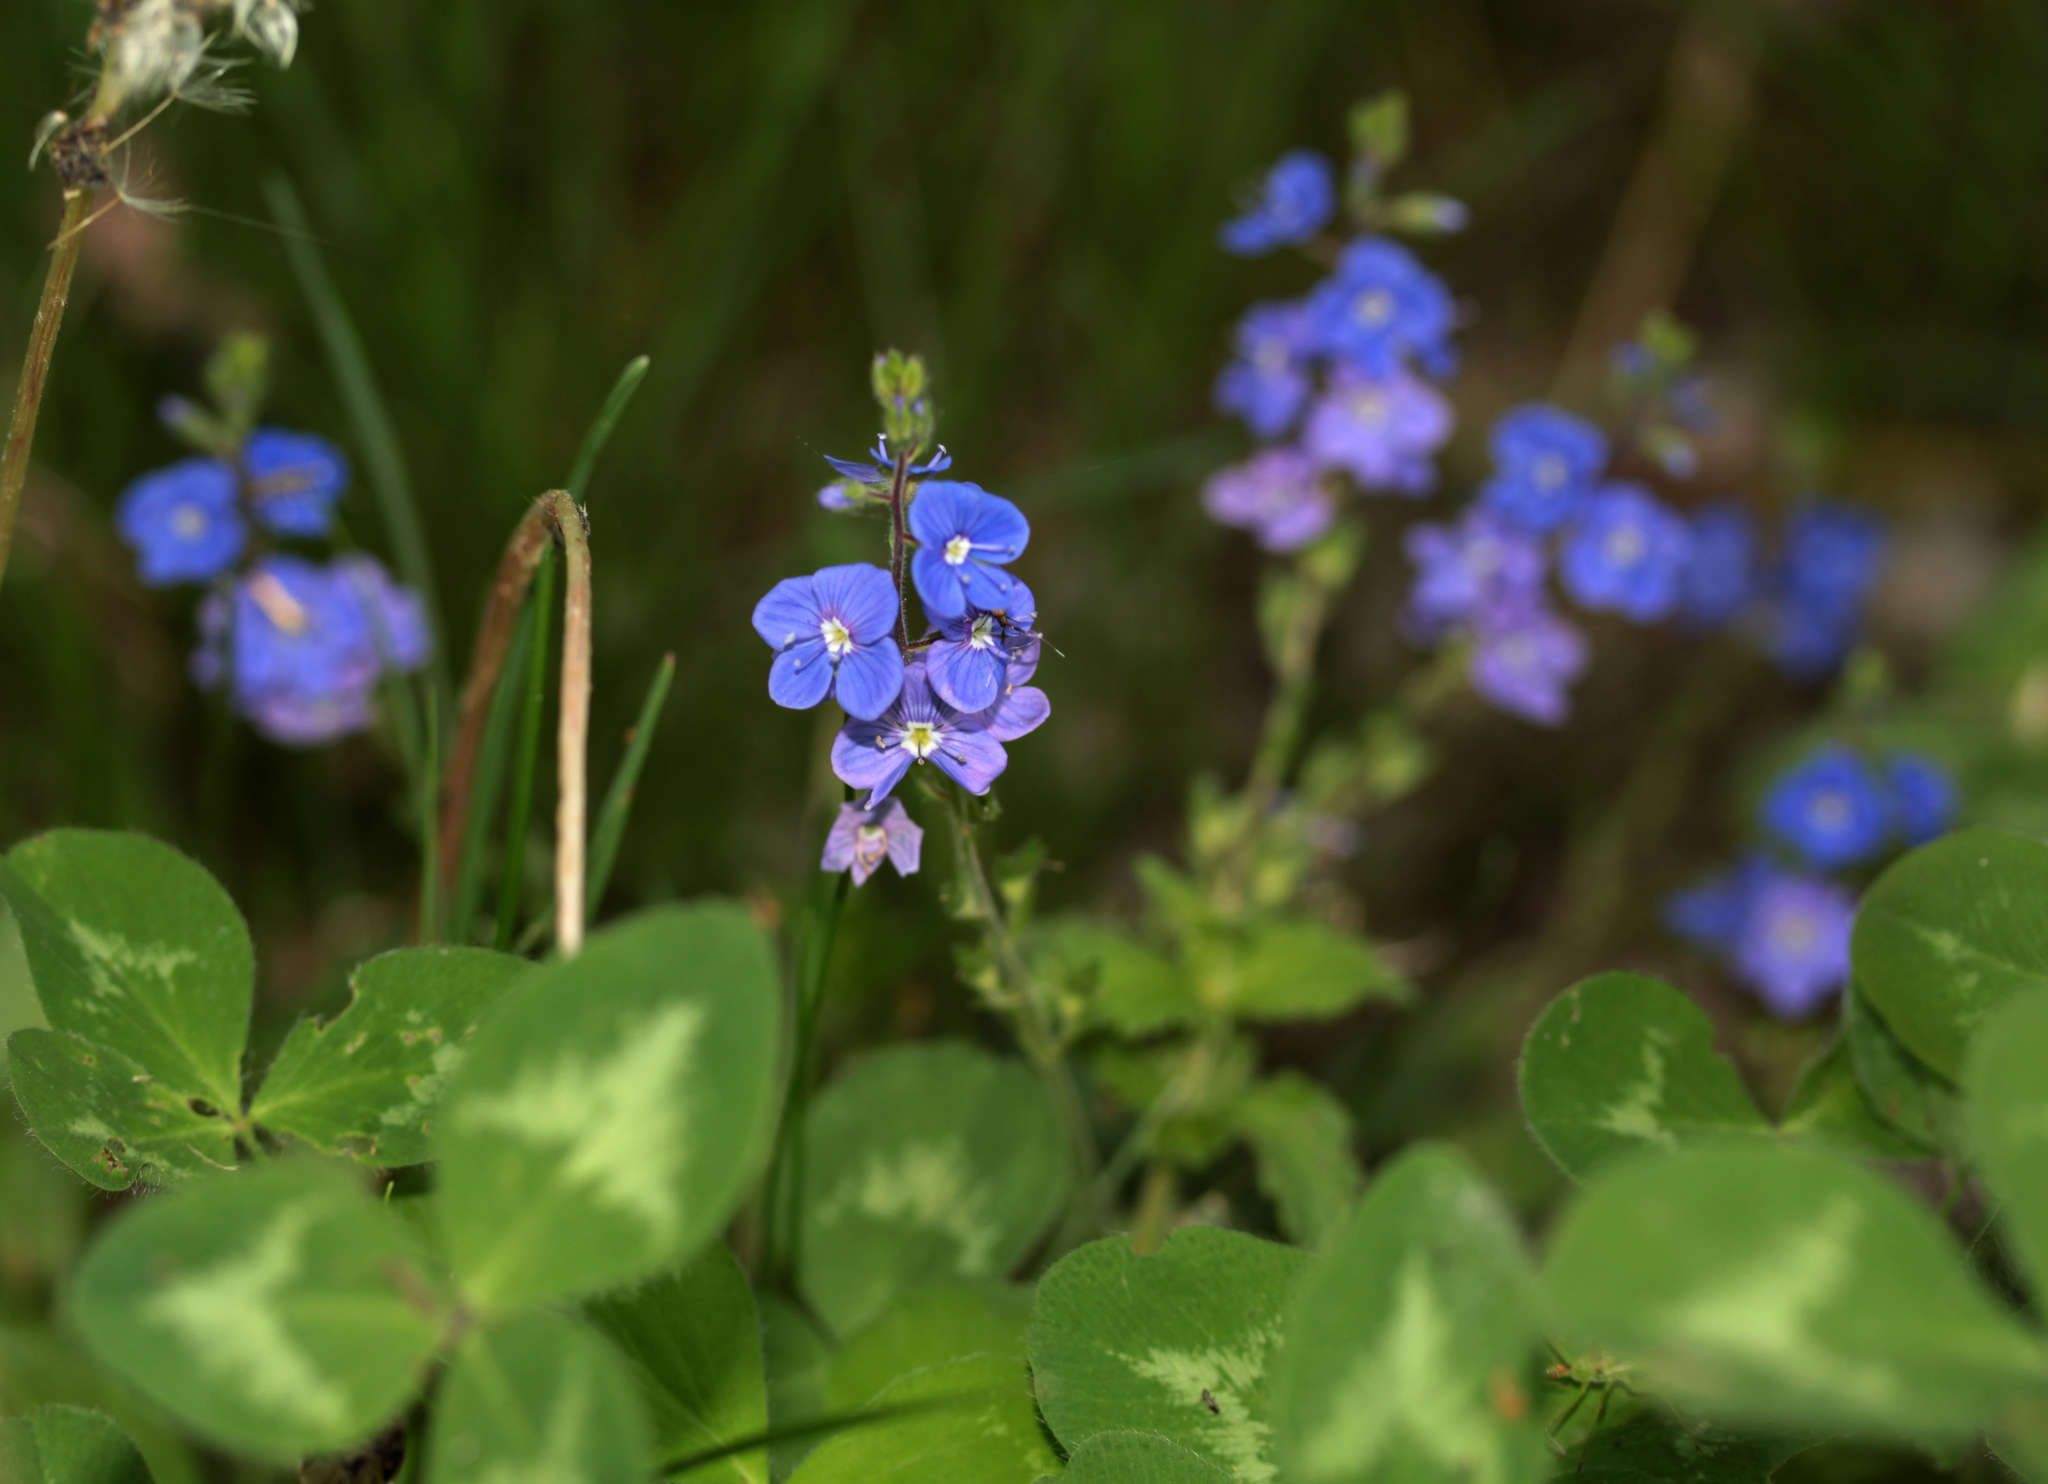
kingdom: Plantae
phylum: Tracheophyta
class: Magnoliopsida
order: Lamiales
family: Plantaginaceae
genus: Veronica
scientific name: Veronica chamaedrys
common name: Germander speedwell
